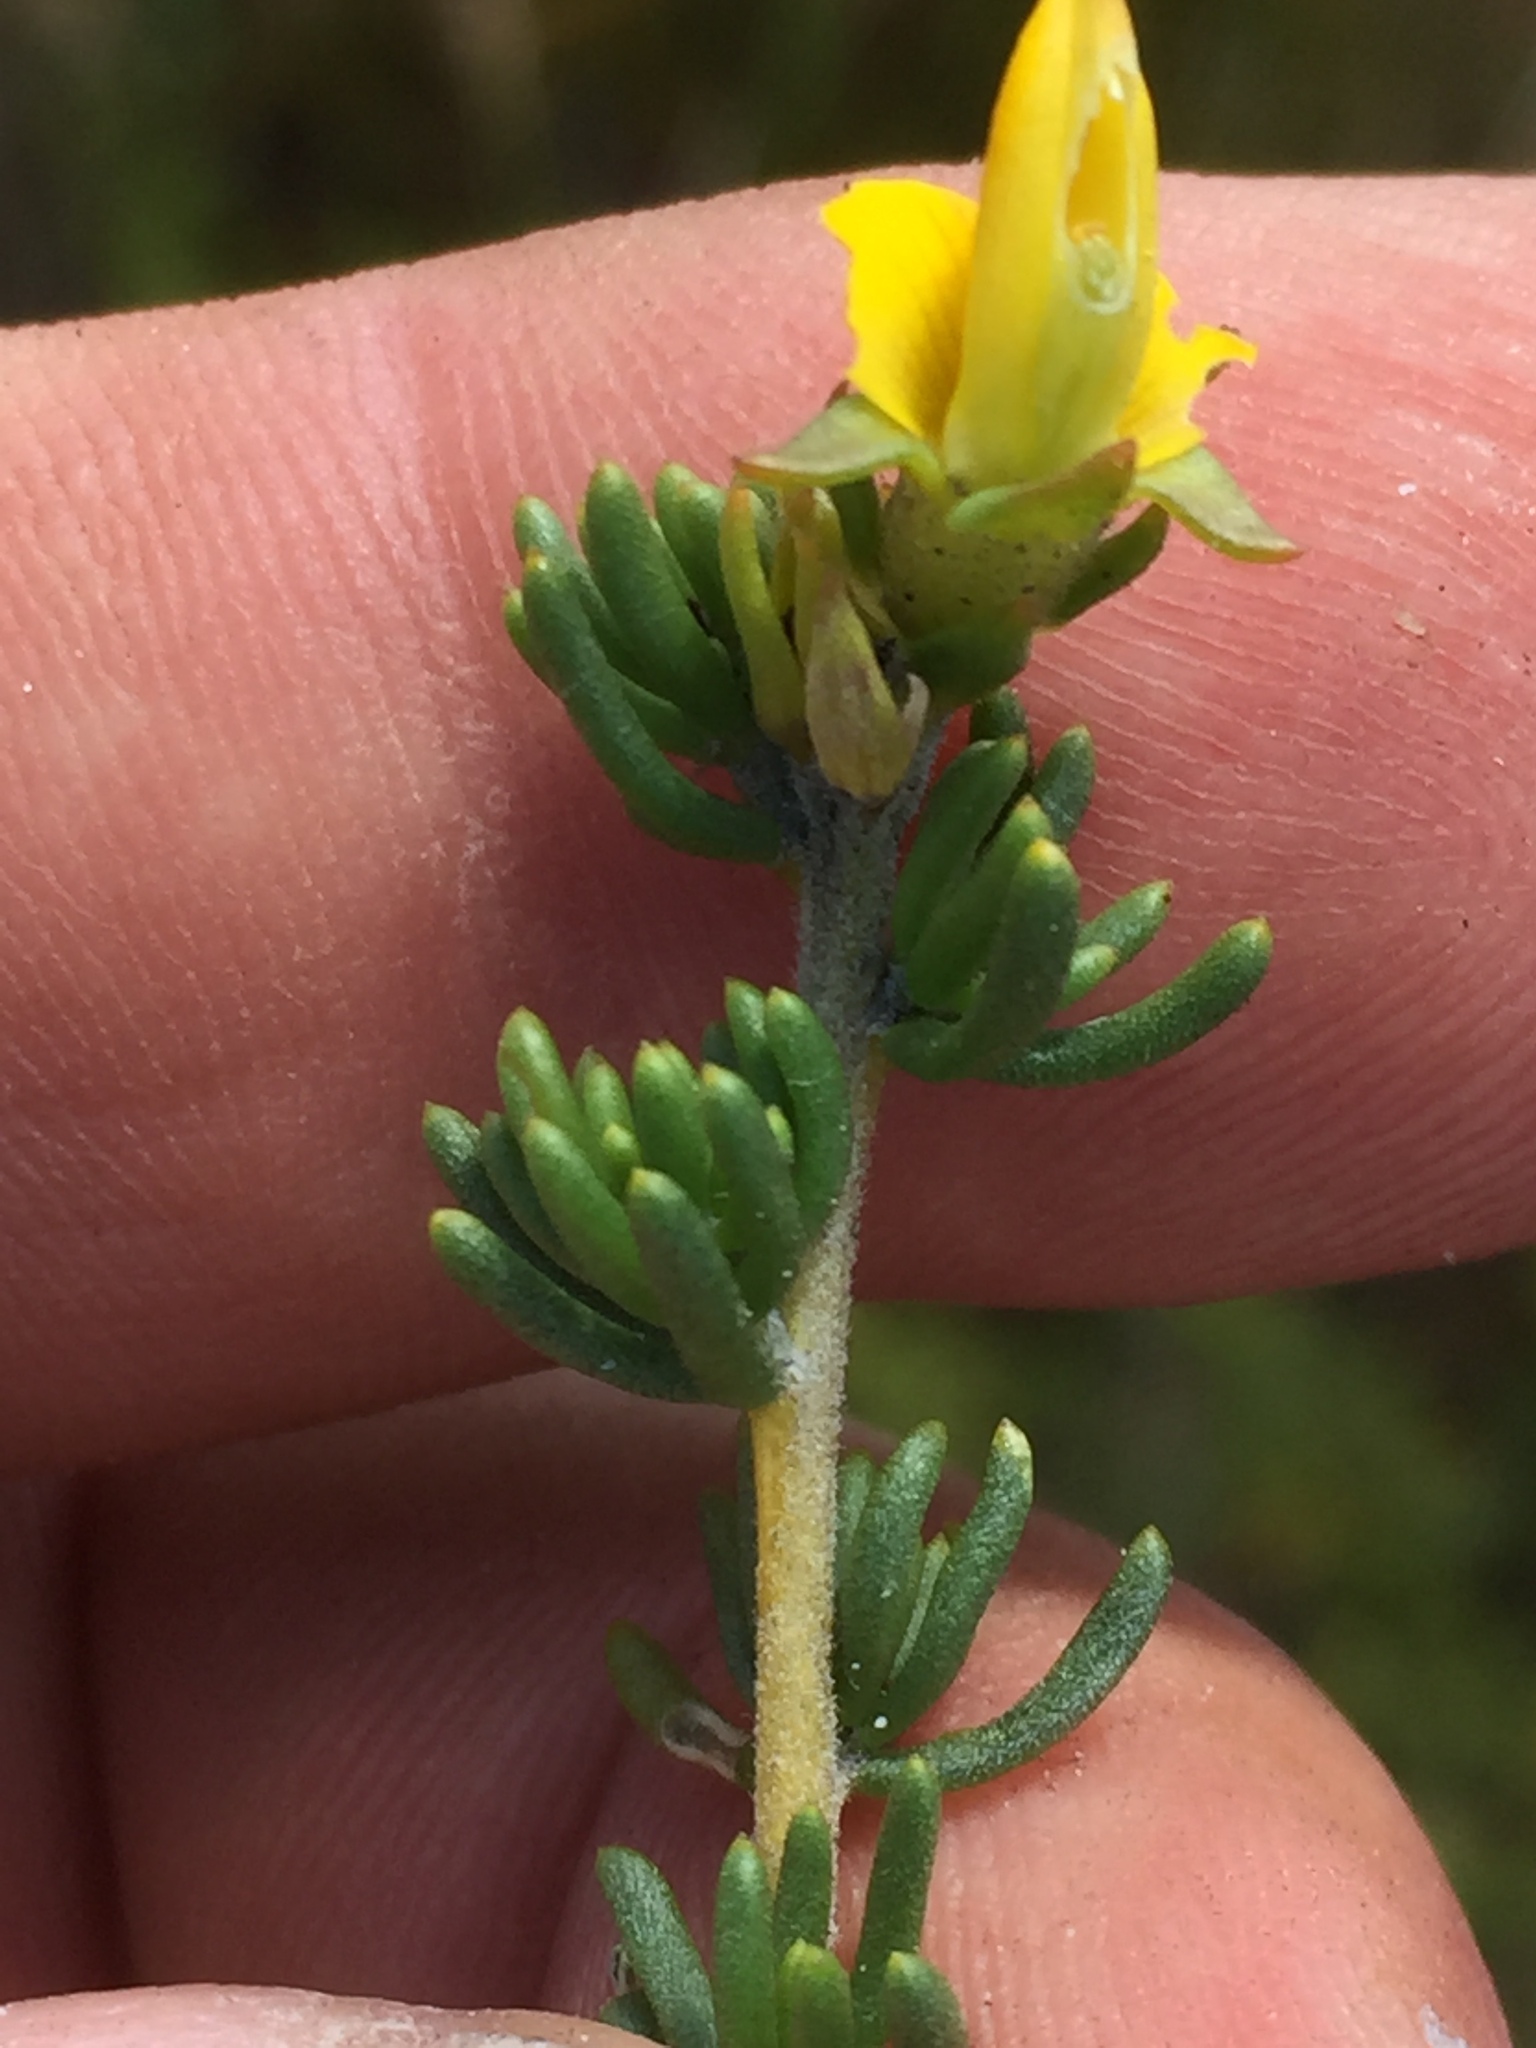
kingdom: Plantae
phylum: Tracheophyta
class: Magnoliopsida
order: Fabales
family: Fabaceae
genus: Aspalathus
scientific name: Aspalathus carnosa
